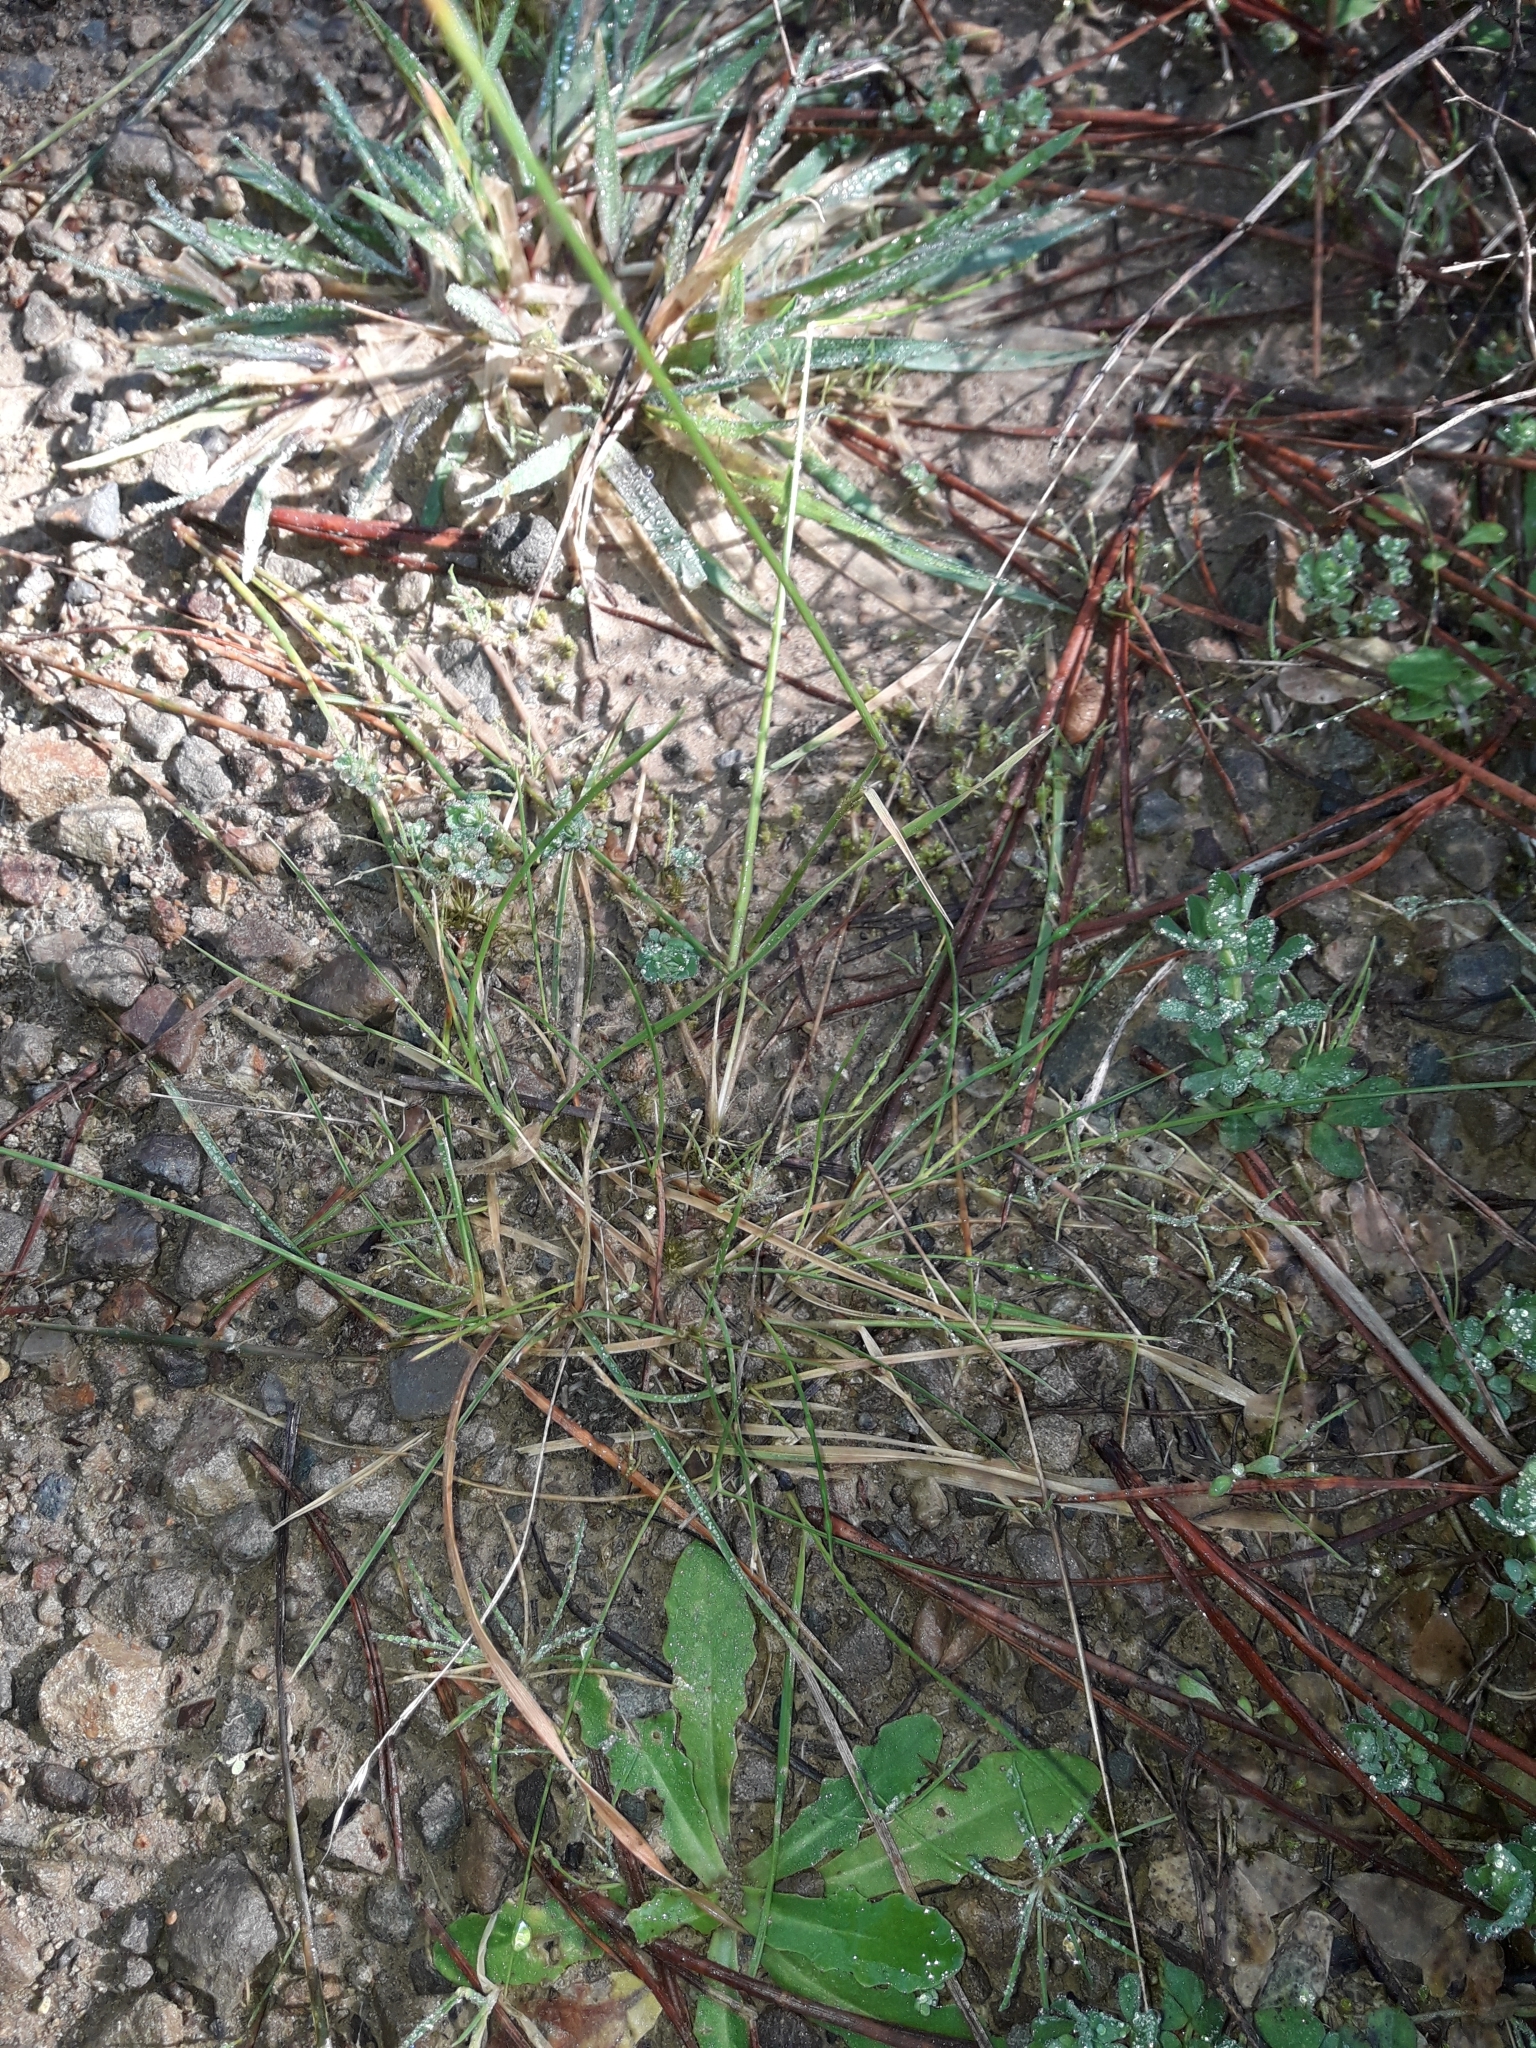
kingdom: Plantae
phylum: Tracheophyta
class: Liliopsida
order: Poales
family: Poaceae
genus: Dichelachne
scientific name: Dichelachne inaequiglumis
